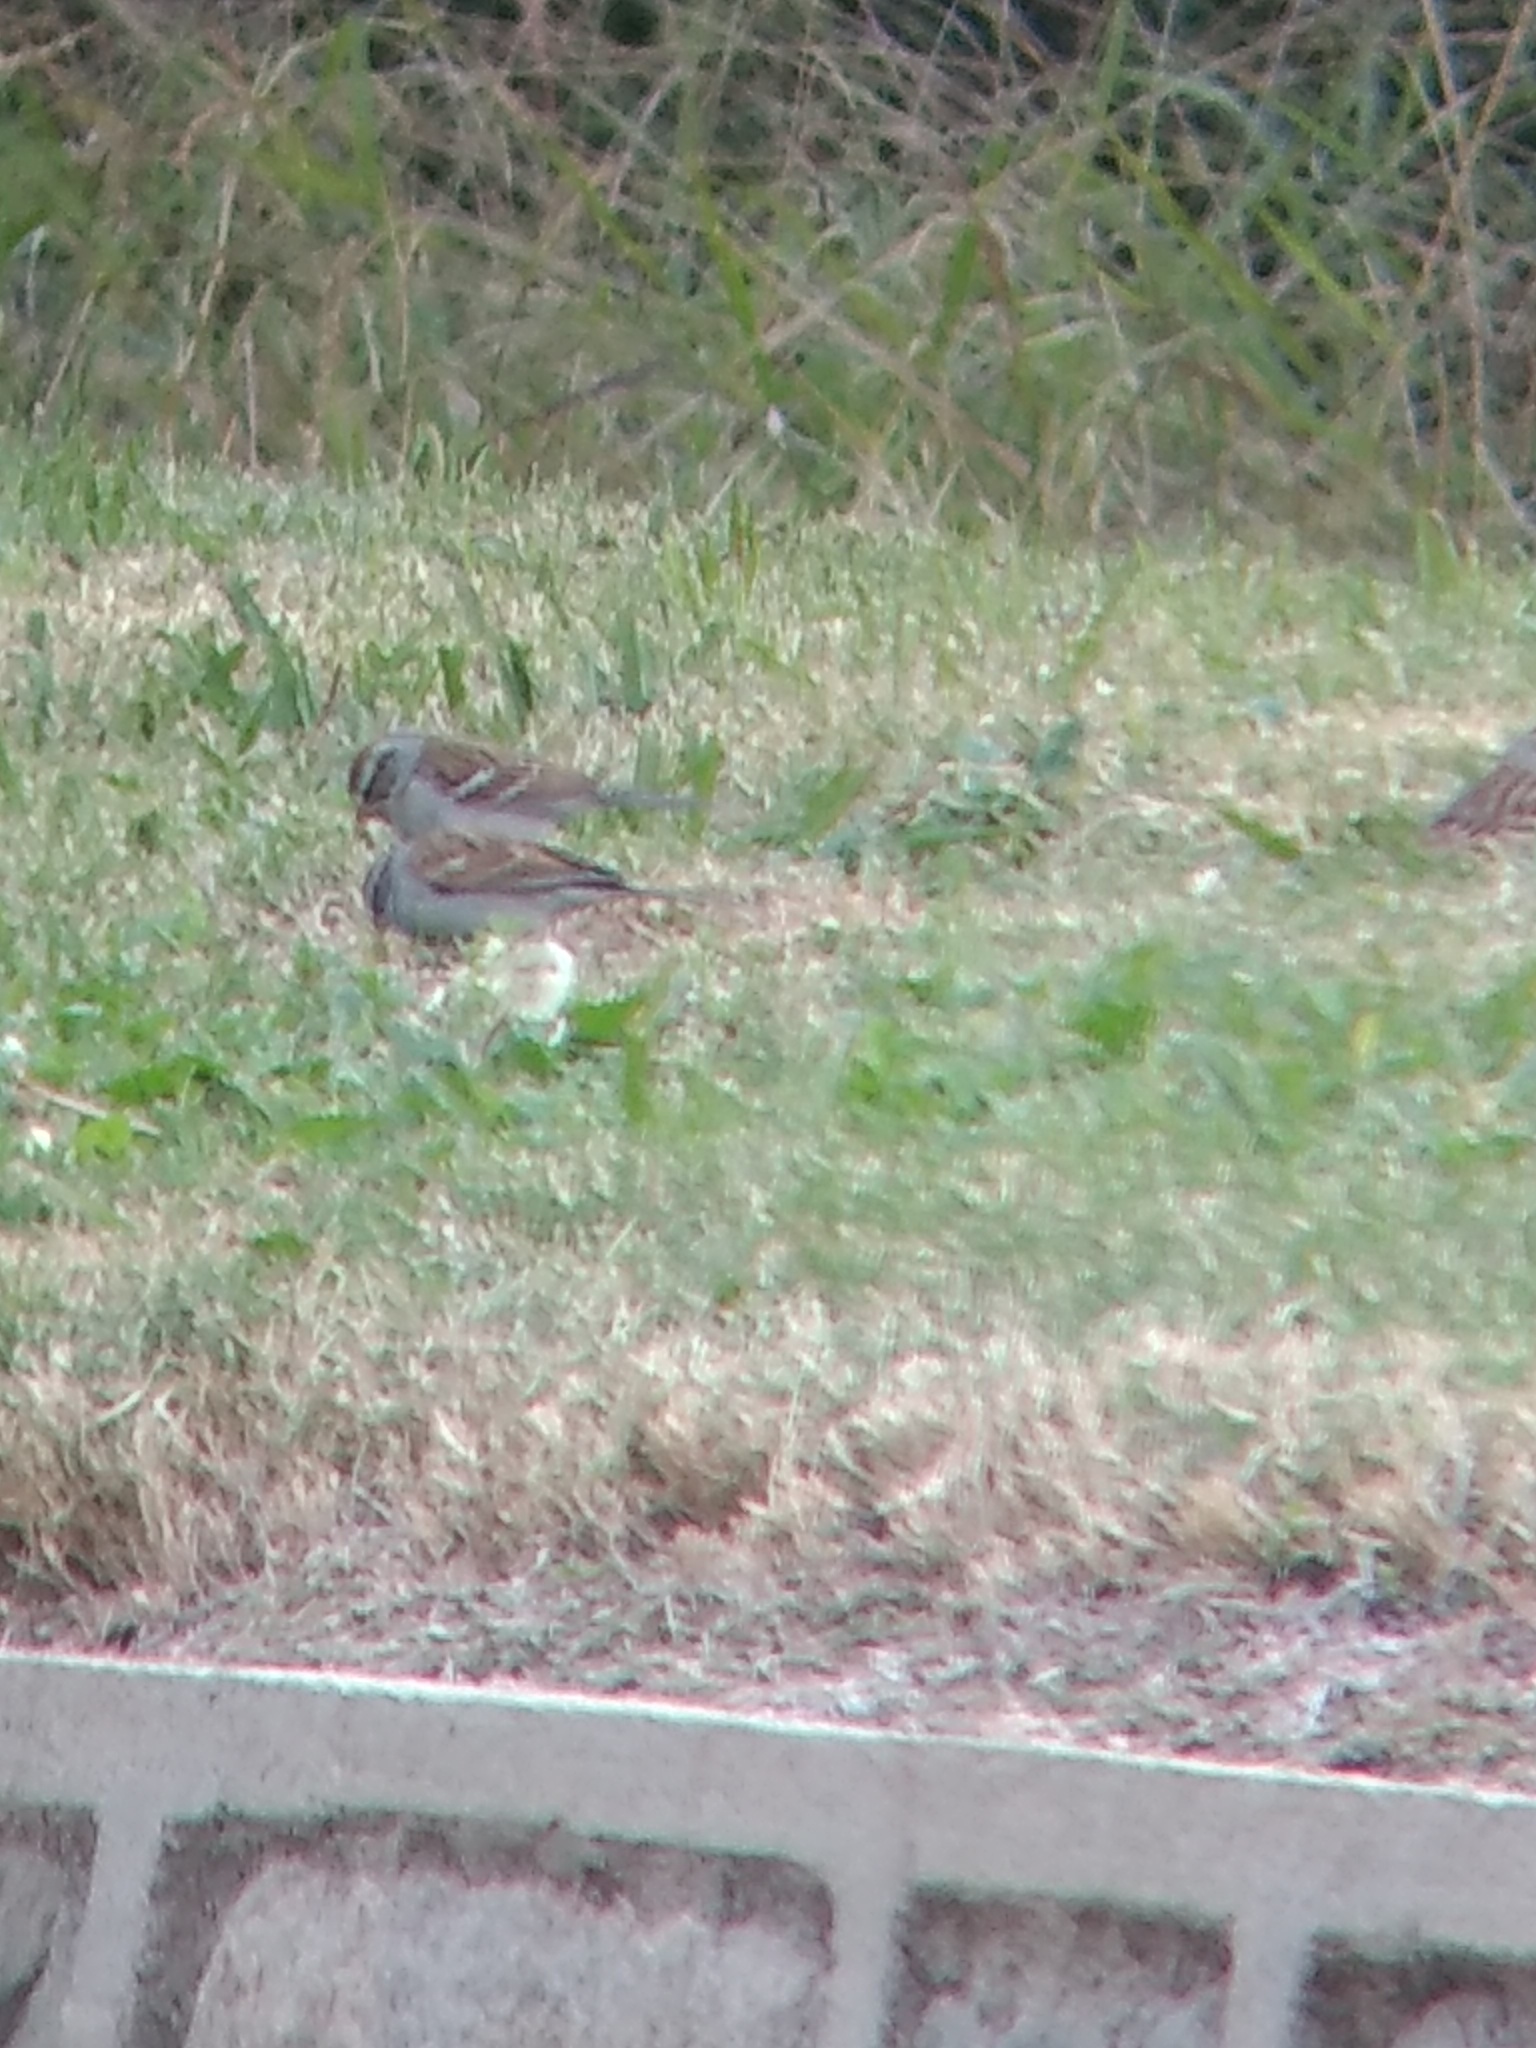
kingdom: Animalia
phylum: Chordata
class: Aves
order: Passeriformes
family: Passerellidae
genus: Spizella
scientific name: Spizella passerina
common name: Chipping sparrow
